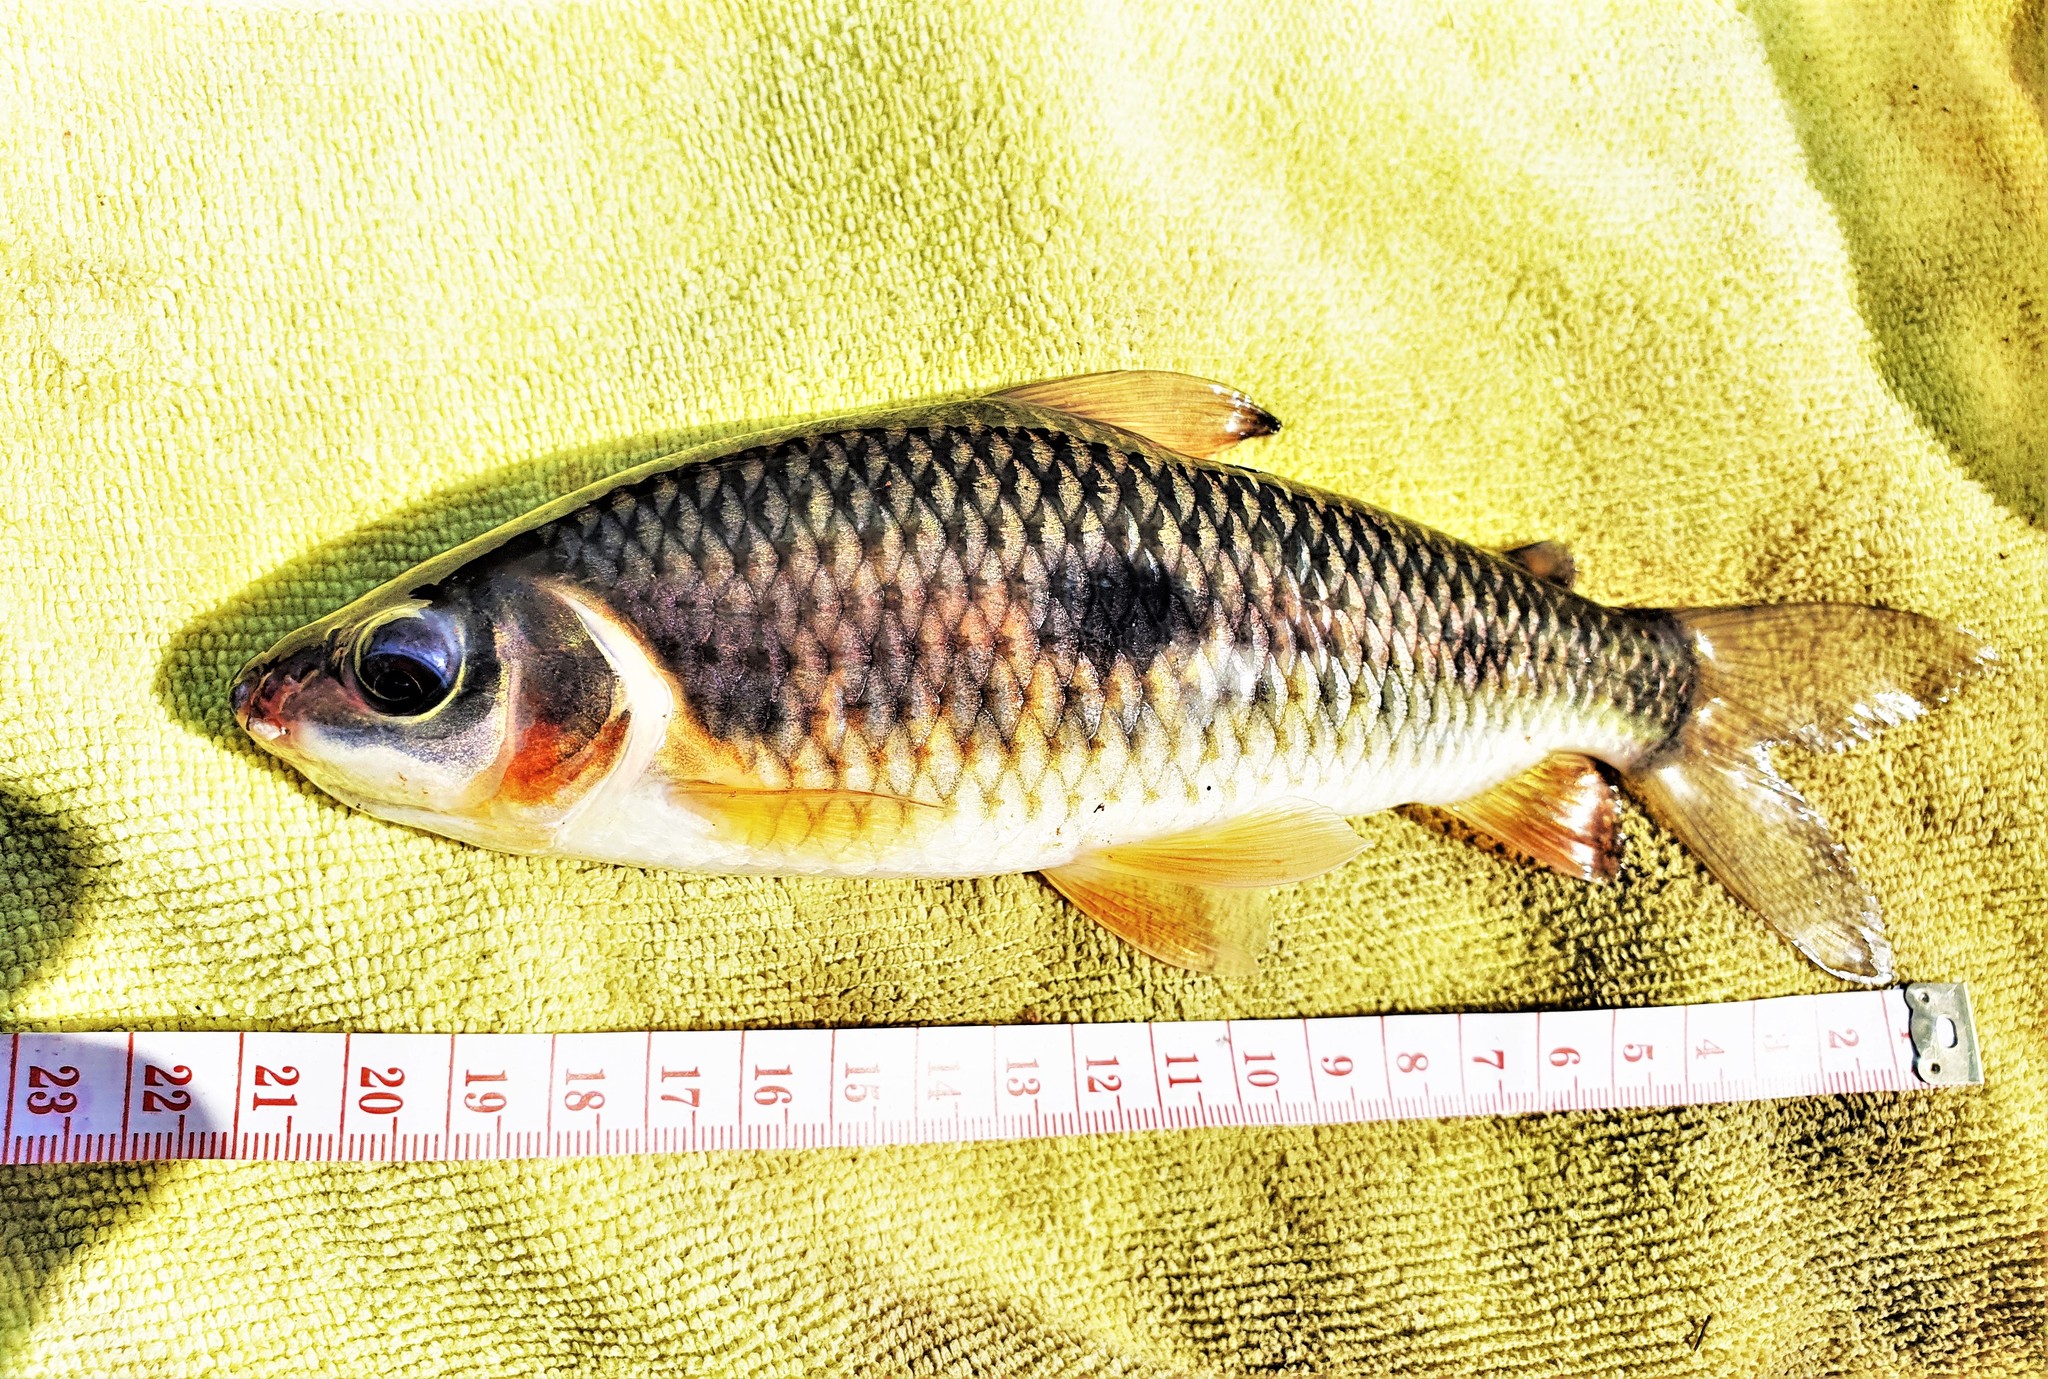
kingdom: Animalia
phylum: Chordata
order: Characiformes
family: Anostomidae
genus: Leporinus
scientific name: Leporinus friderici
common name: Threespot leporinus
